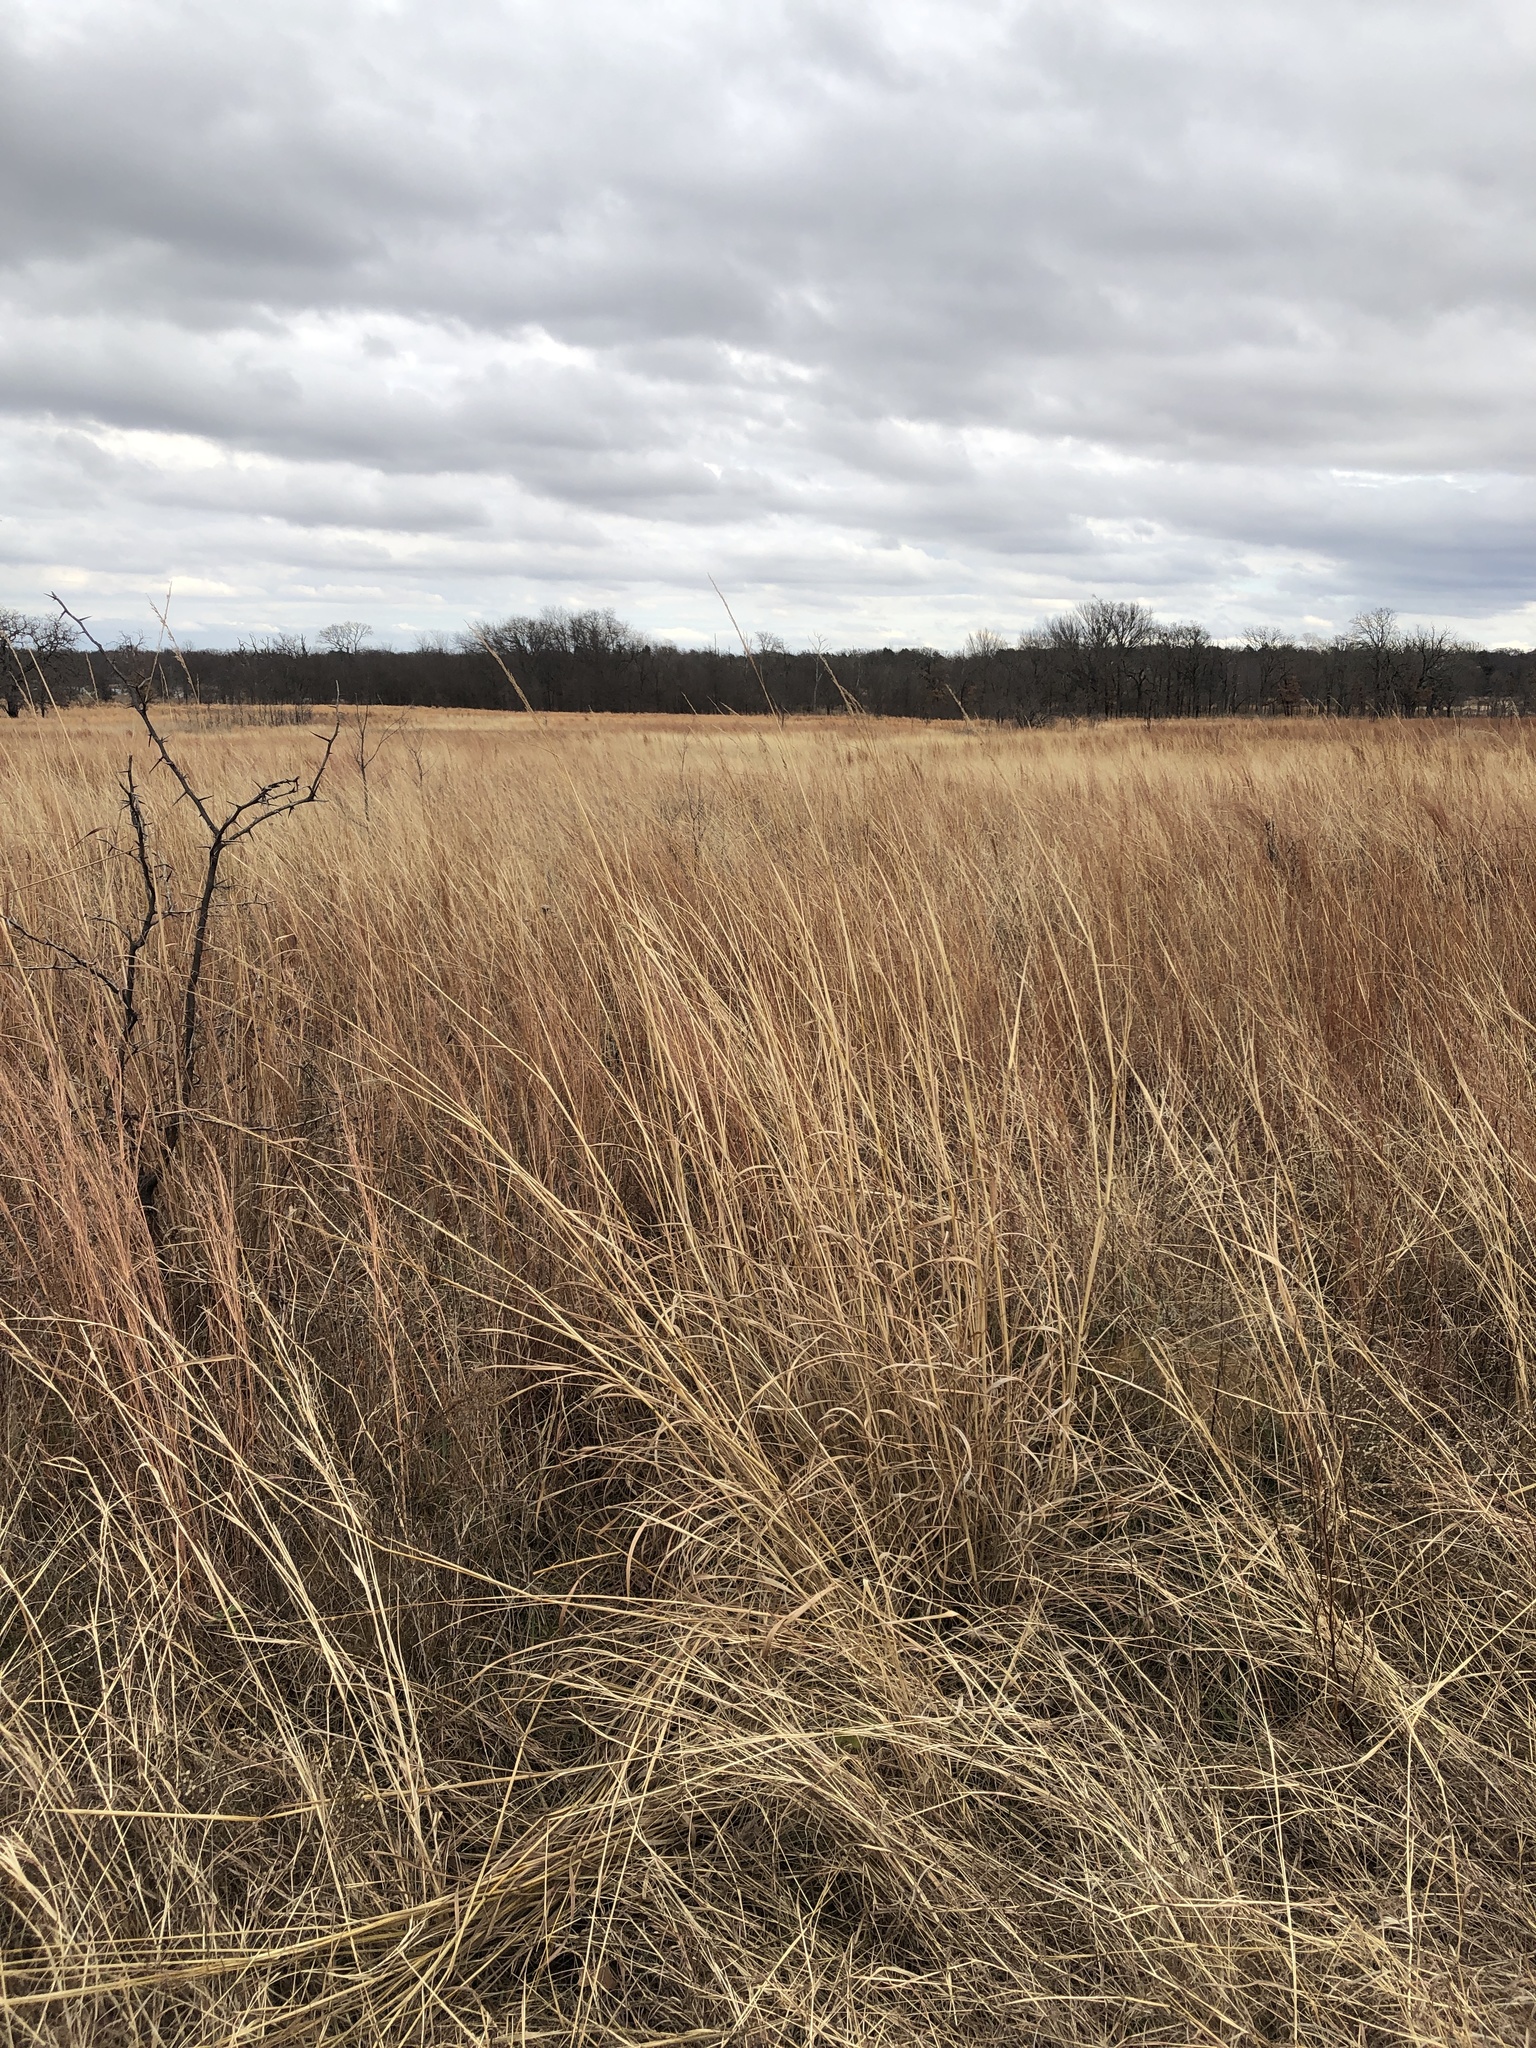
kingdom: Plantae
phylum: Tracheophyta
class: Liliopsida
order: Poales
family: Poaceae
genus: Sorghastrum
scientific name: Sorghastrum nutans
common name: Indian grass
